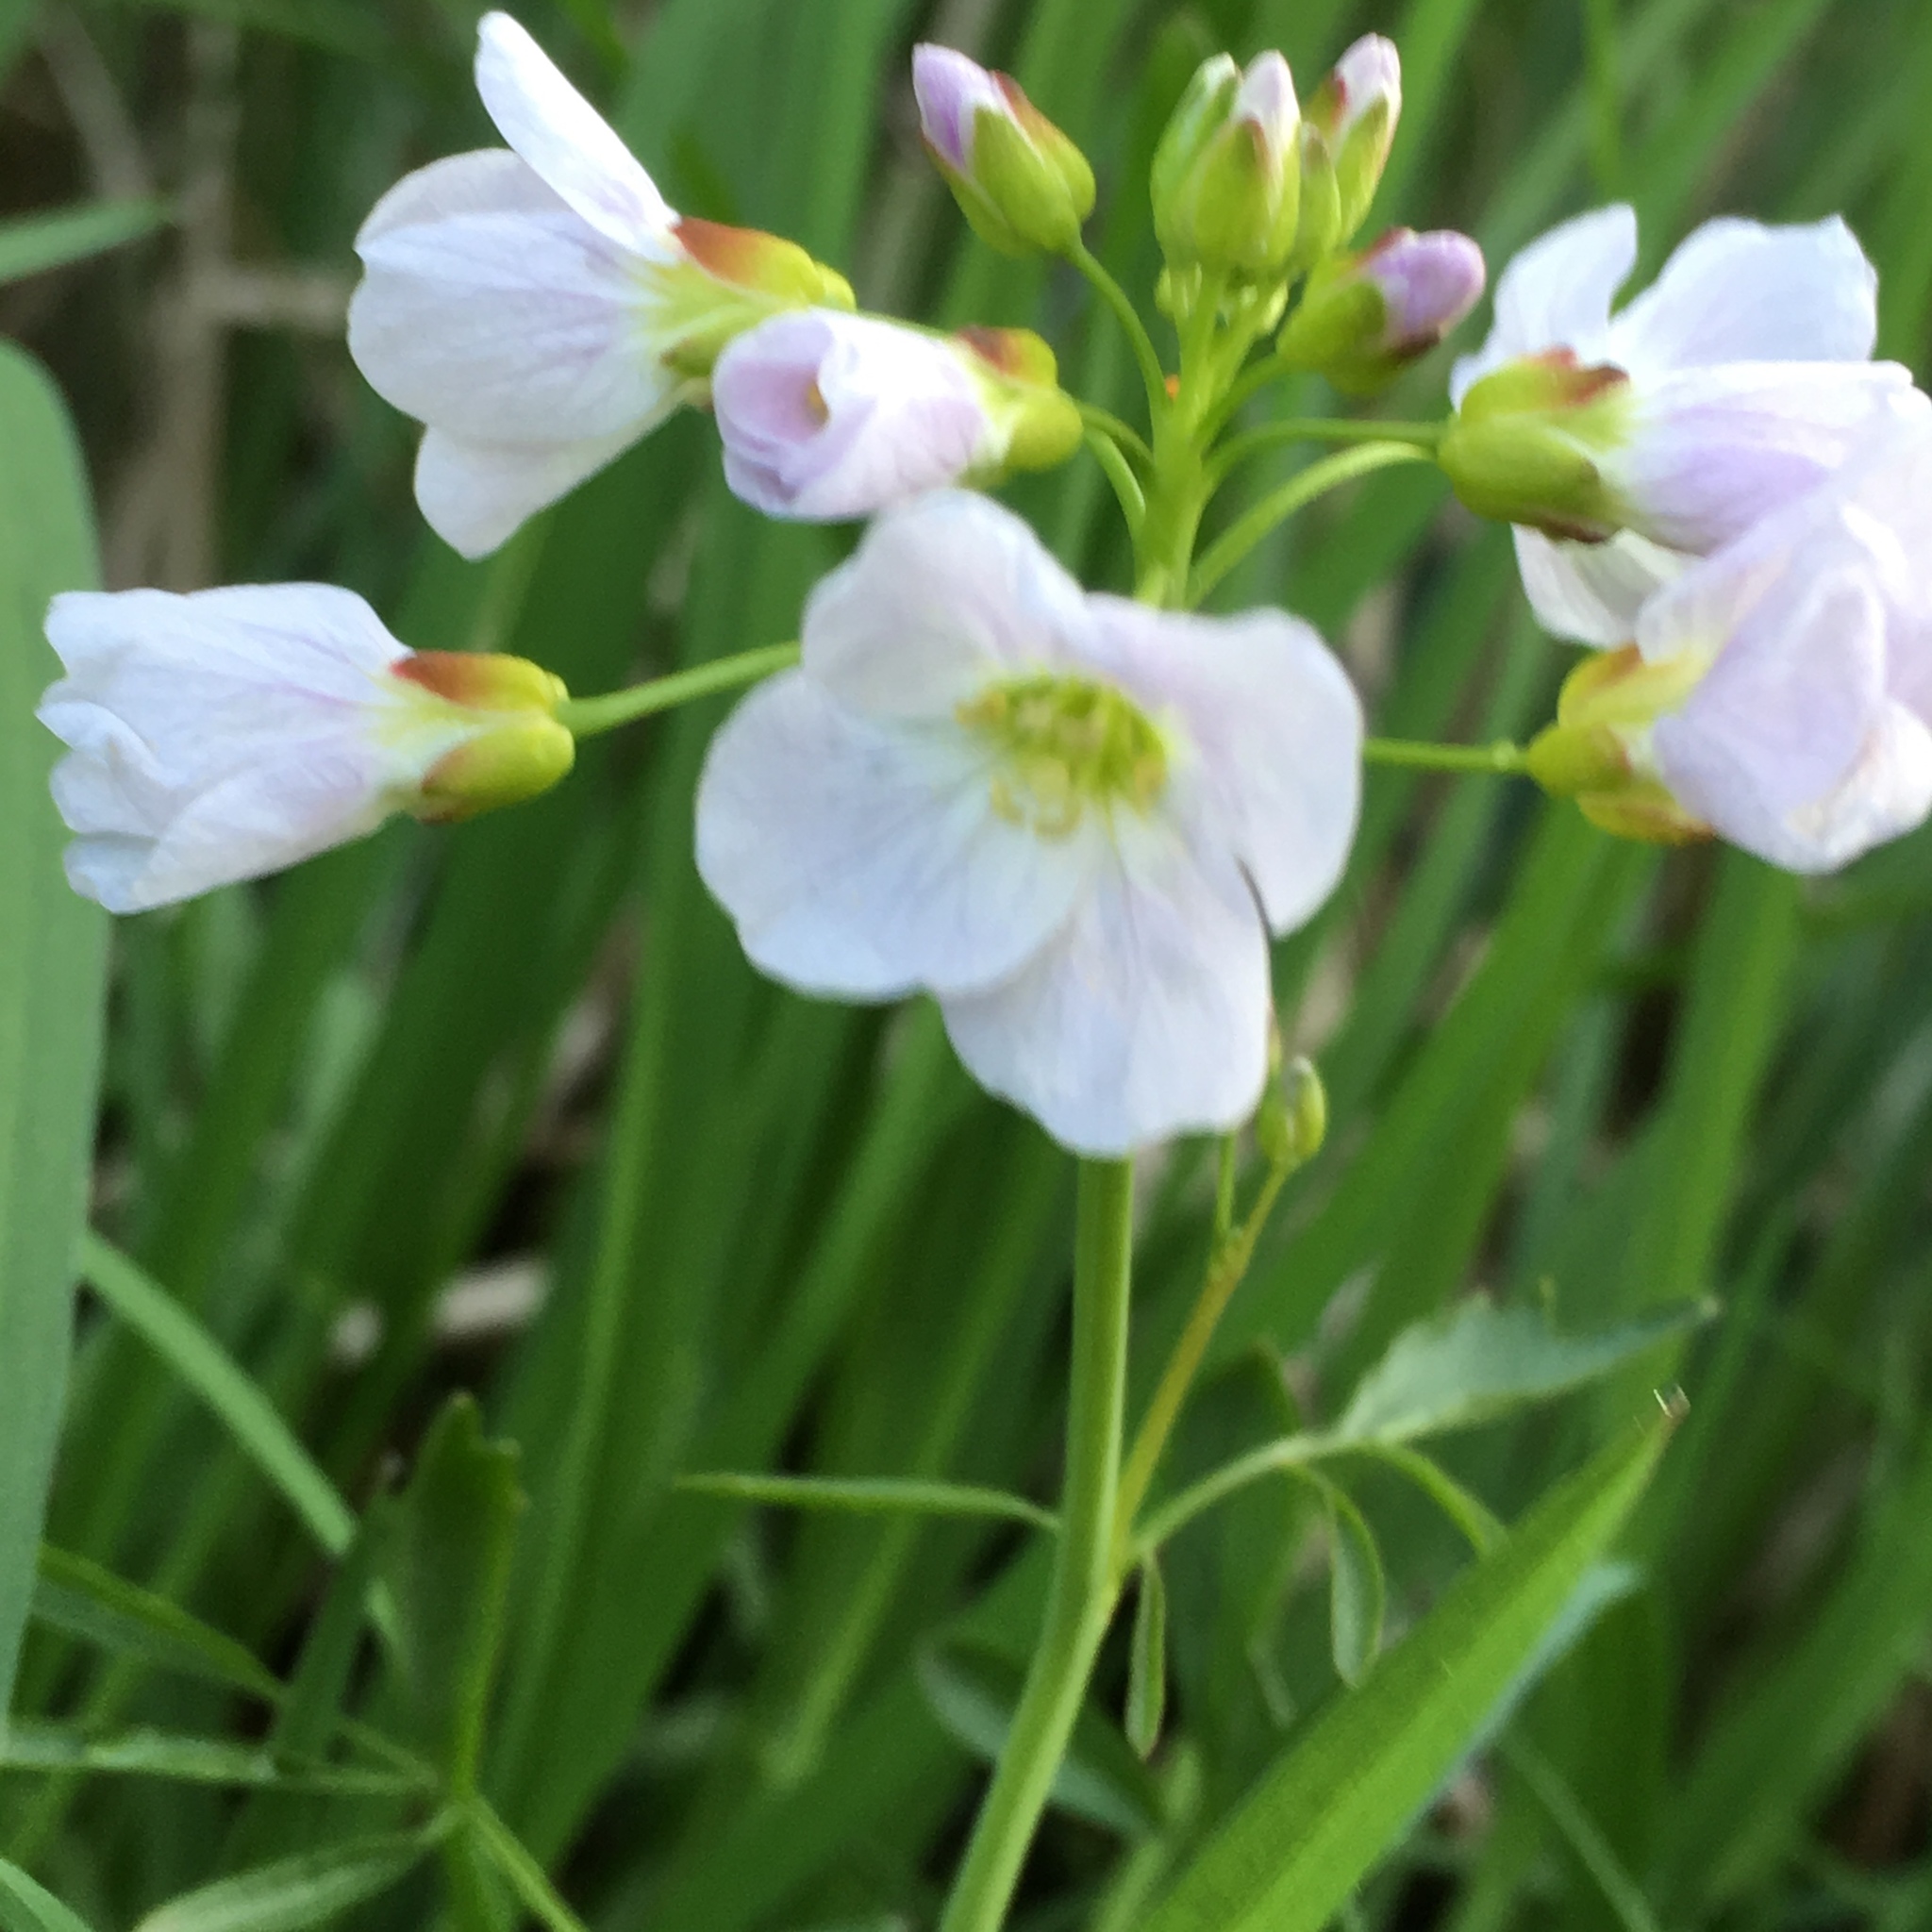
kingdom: Plantae
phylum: Tracheophyta
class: Magnoliopsida
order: Brassicales
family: Brassicaceae
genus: Cardamine
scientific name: Cardamine pratensis
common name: Cuckoo flower
